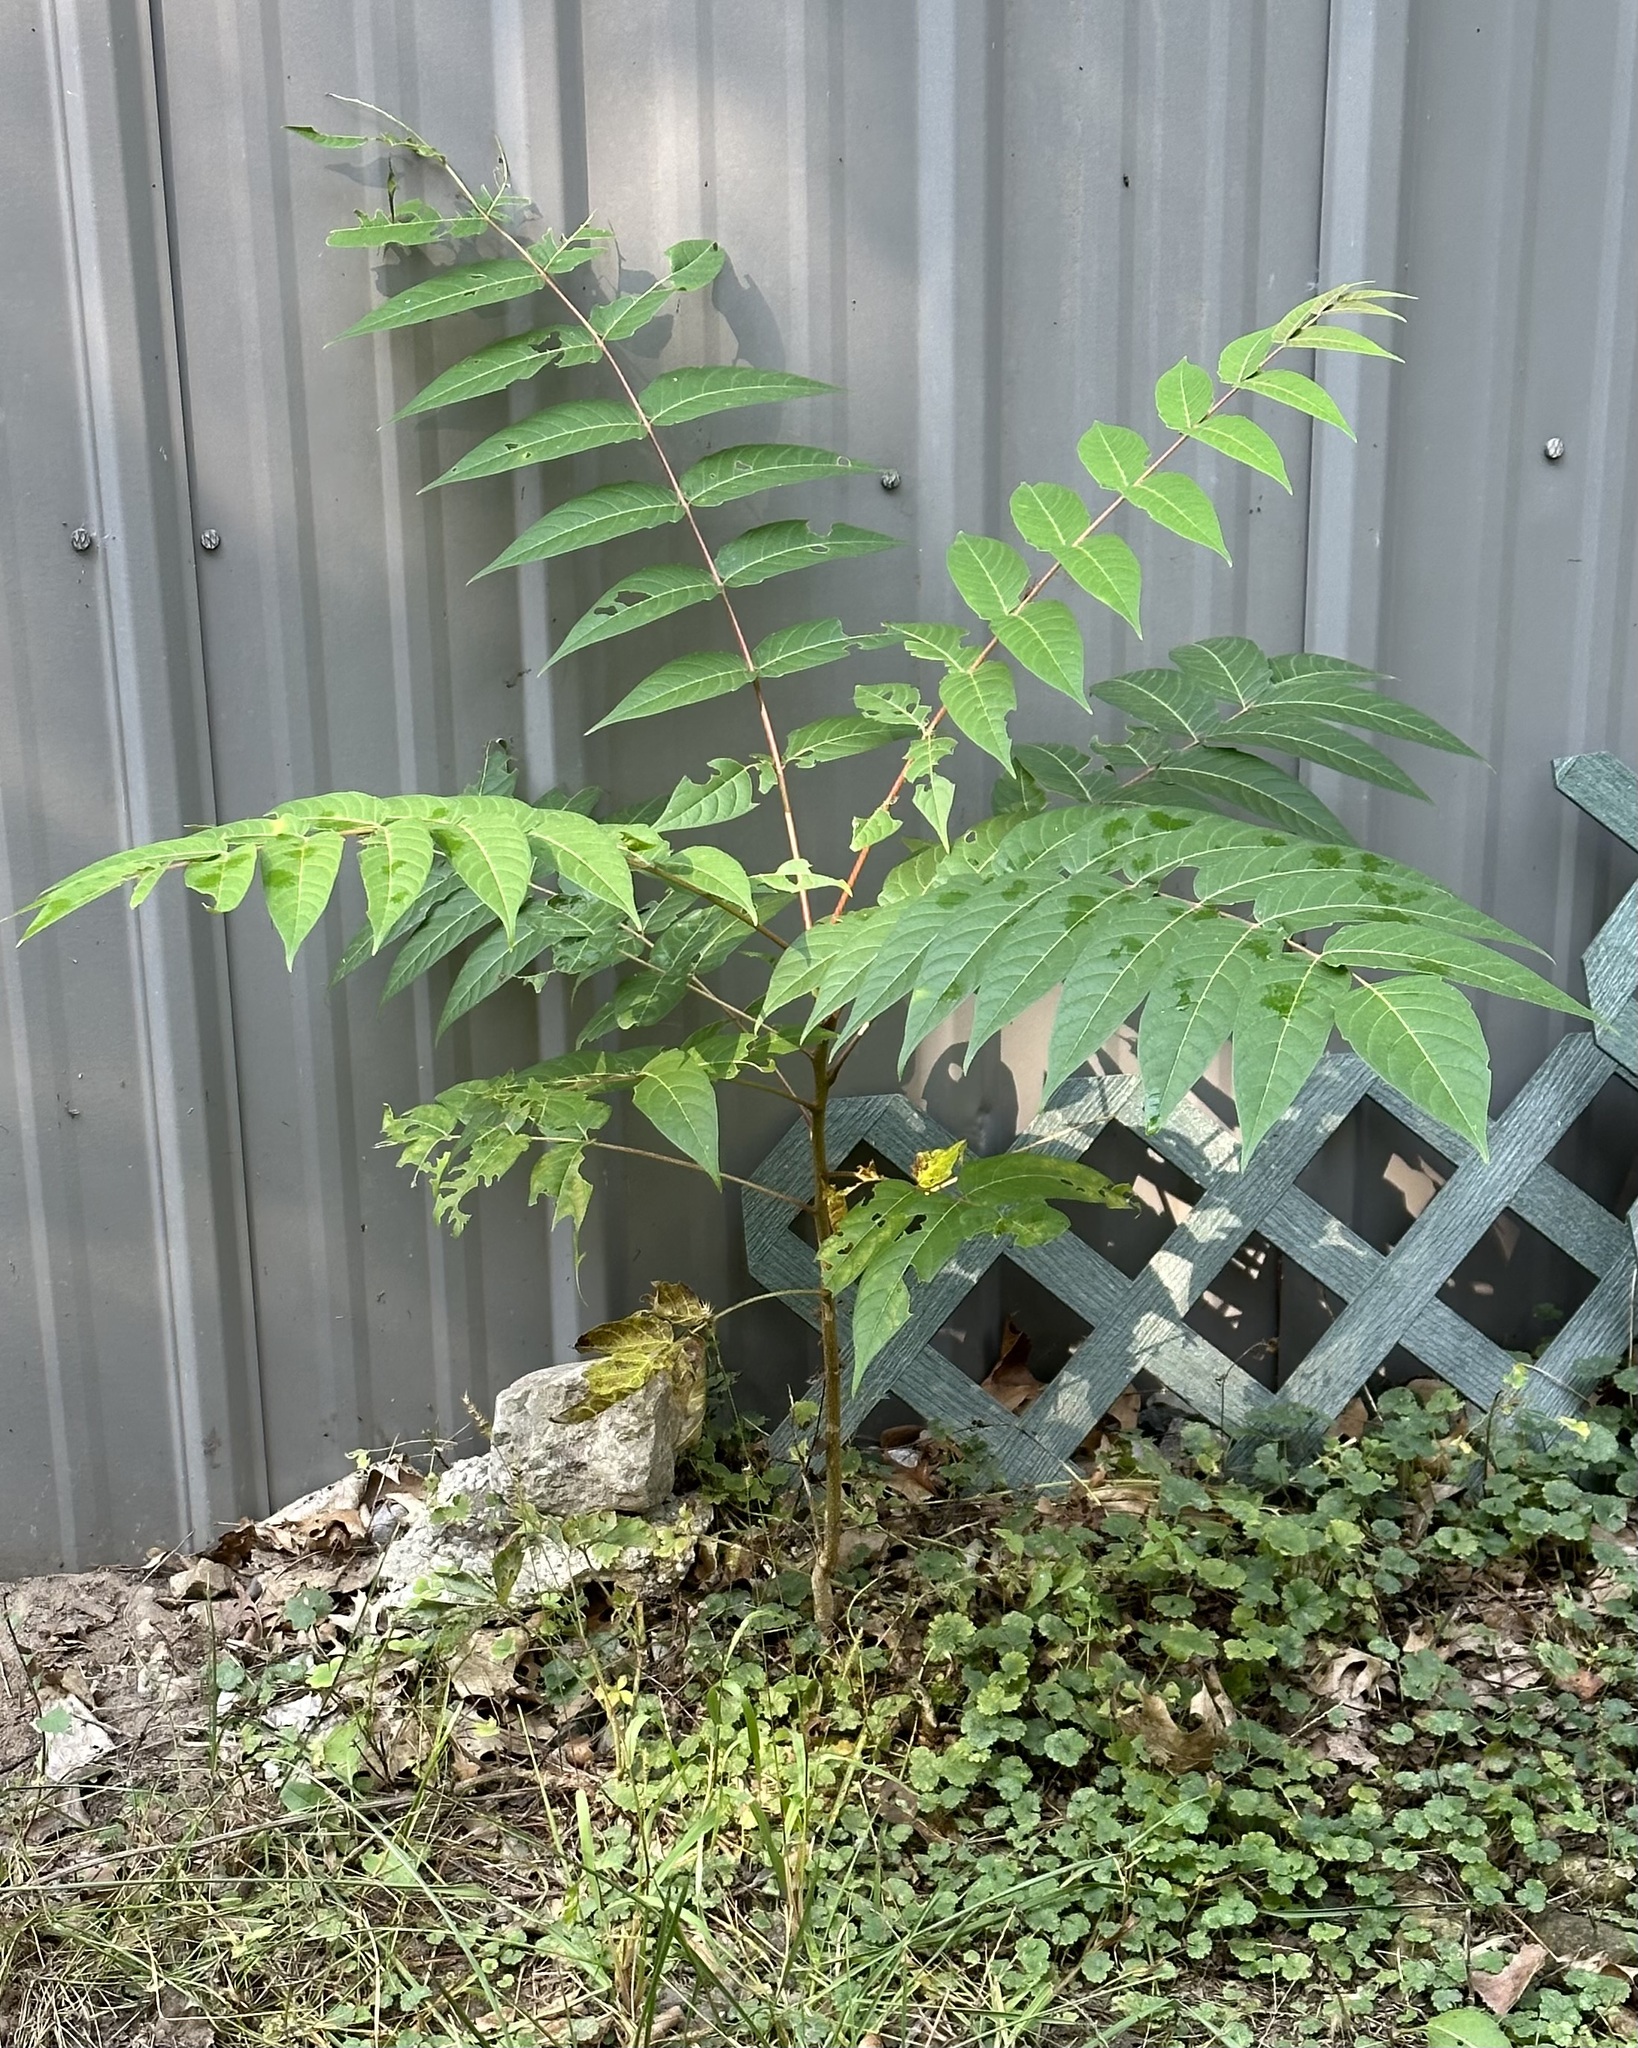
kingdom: Plantae
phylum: Tracheophyta
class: Magnoliopsida
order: Sapindales
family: Simaroubaceae
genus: Ailanthus
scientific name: Ailanthus altissima
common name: Tree-of-heaven
